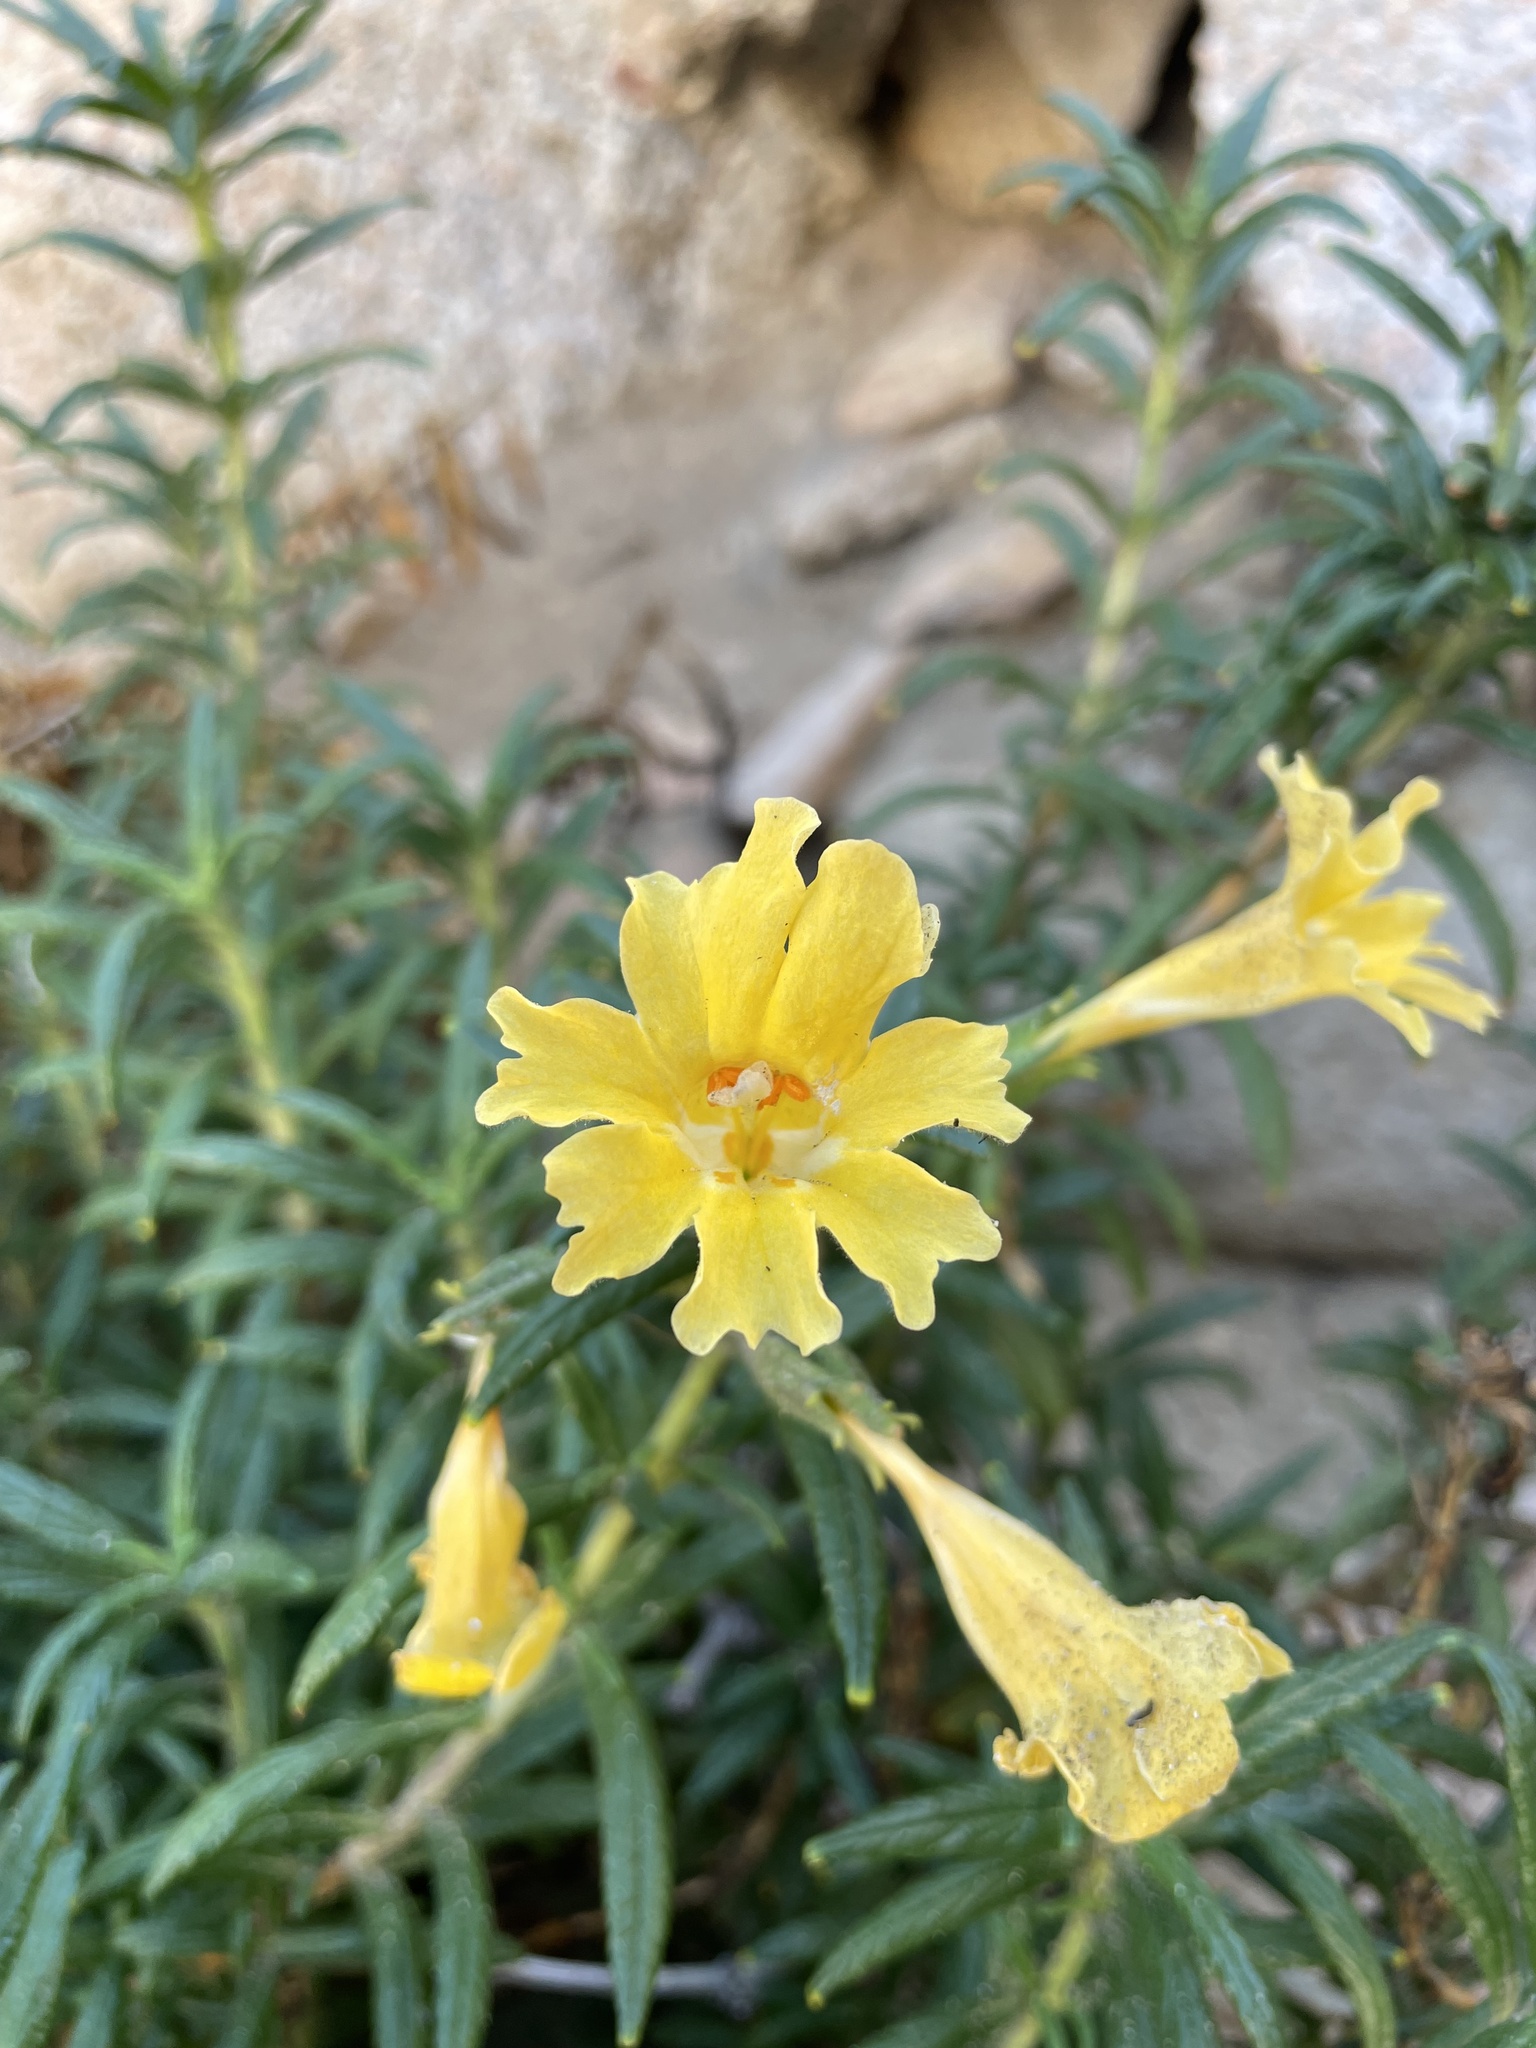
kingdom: Plantae
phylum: Tracheophyta
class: Magnoliopsida
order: Lamiales
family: Phrymaceae
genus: Diplacus
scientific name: Diplacus calycinus
